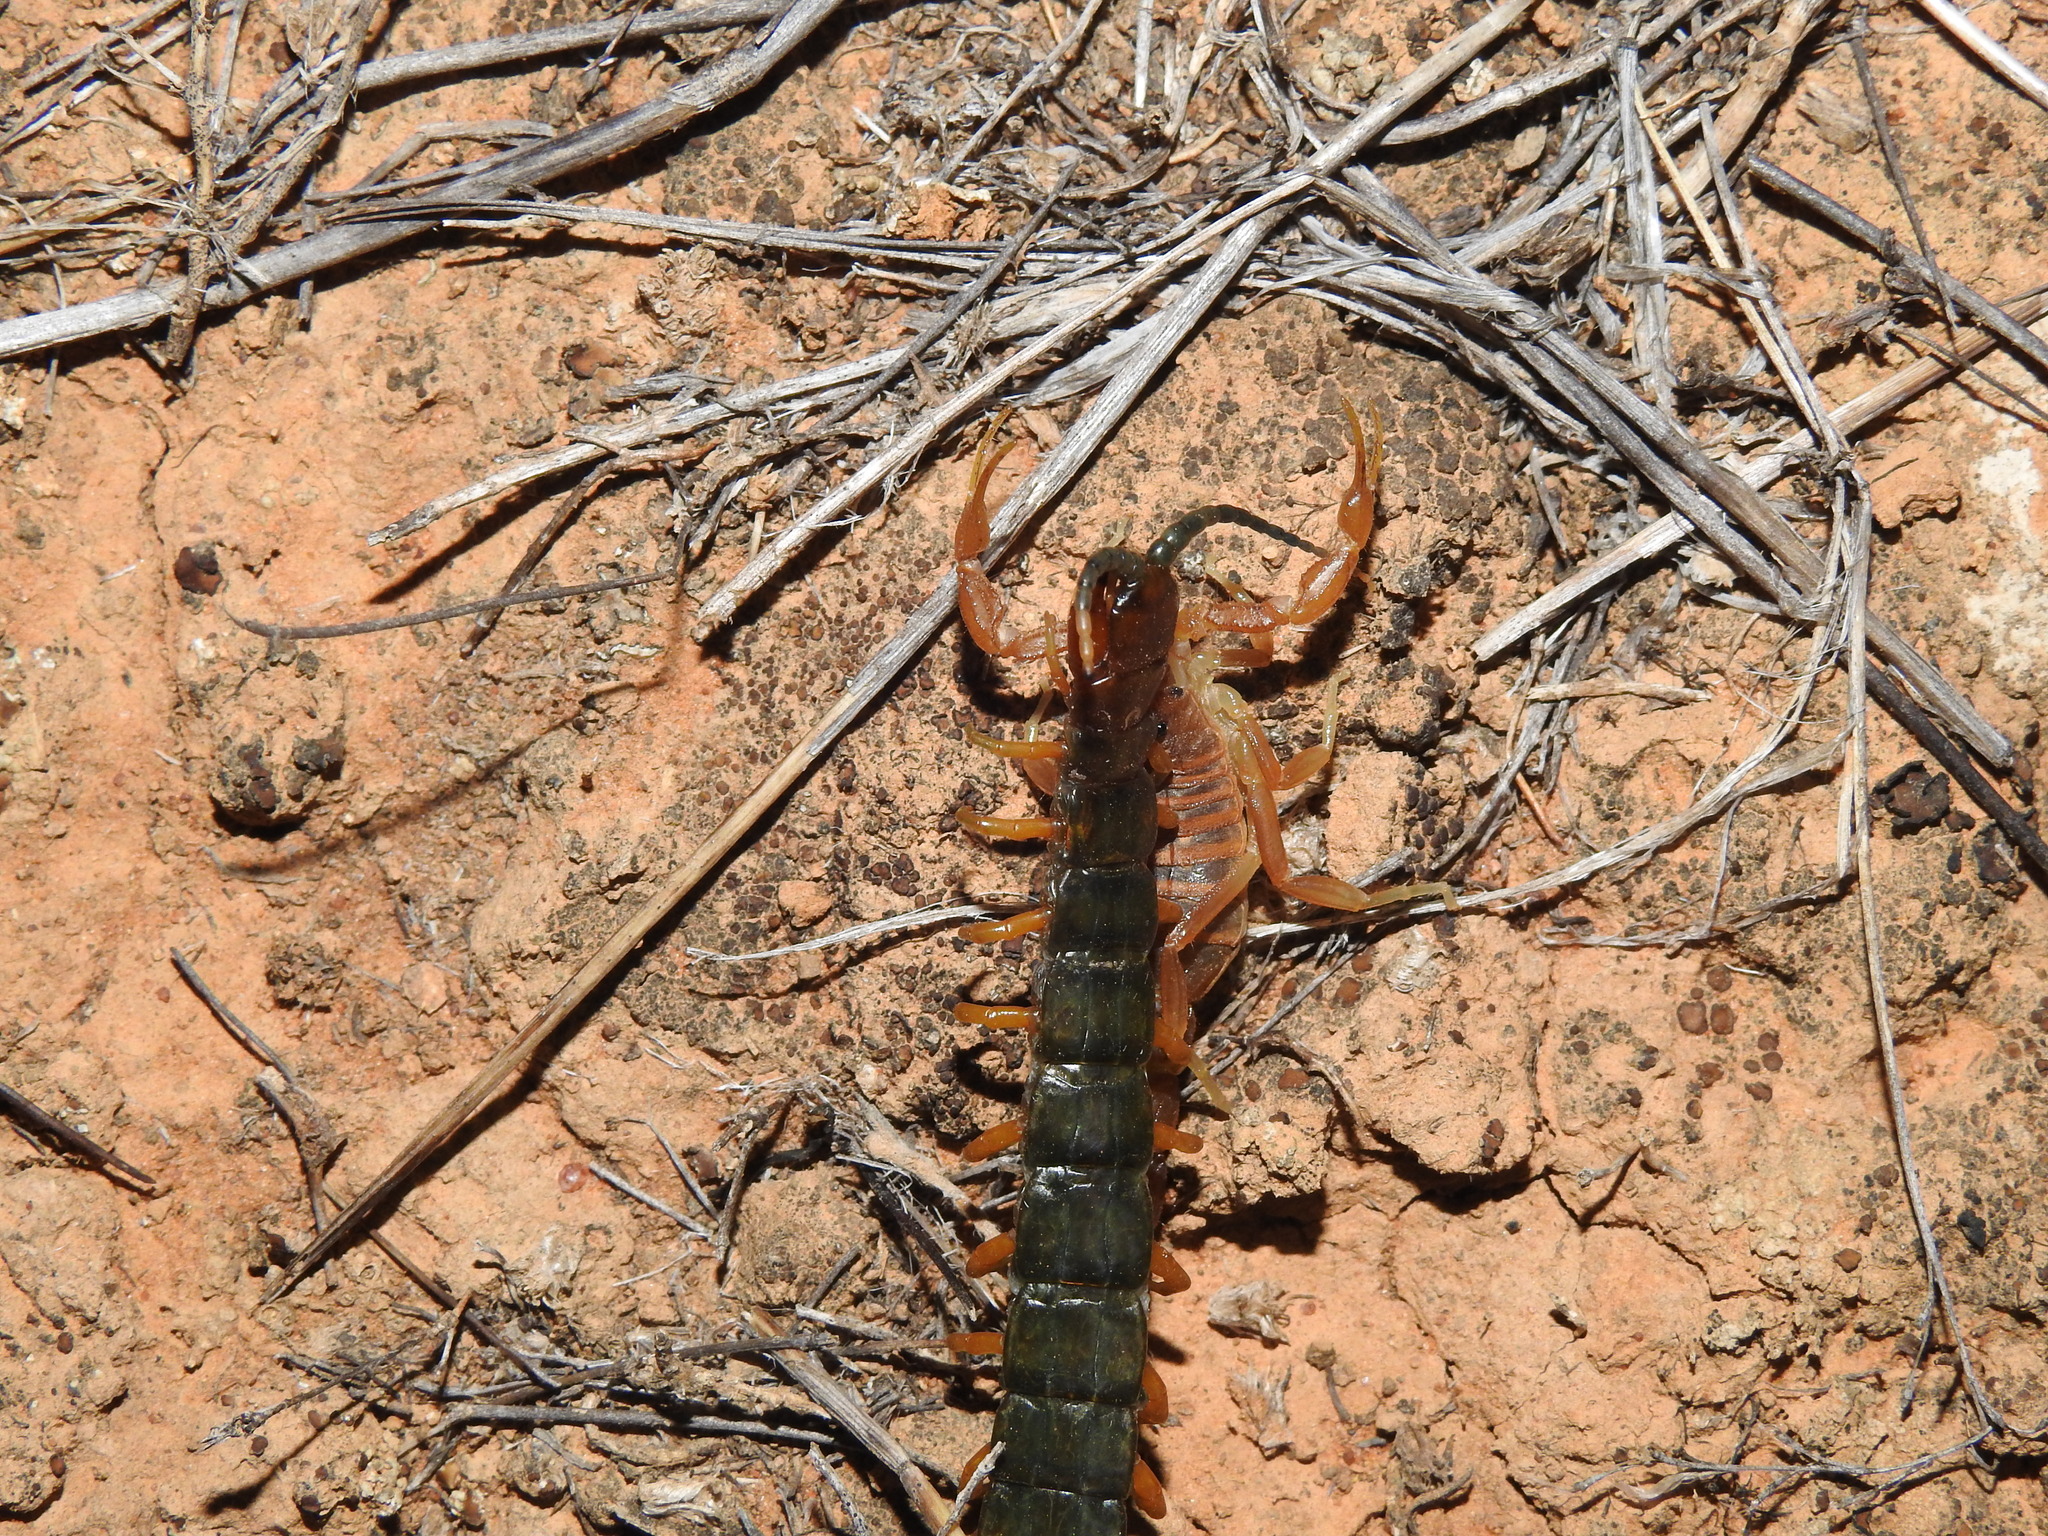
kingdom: Animalia
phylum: Arthropoda
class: Chilopoda
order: Scolopendromorpha
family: Scolopendridae
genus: Cormocephalus
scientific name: Cormocephalus aurantiipes
